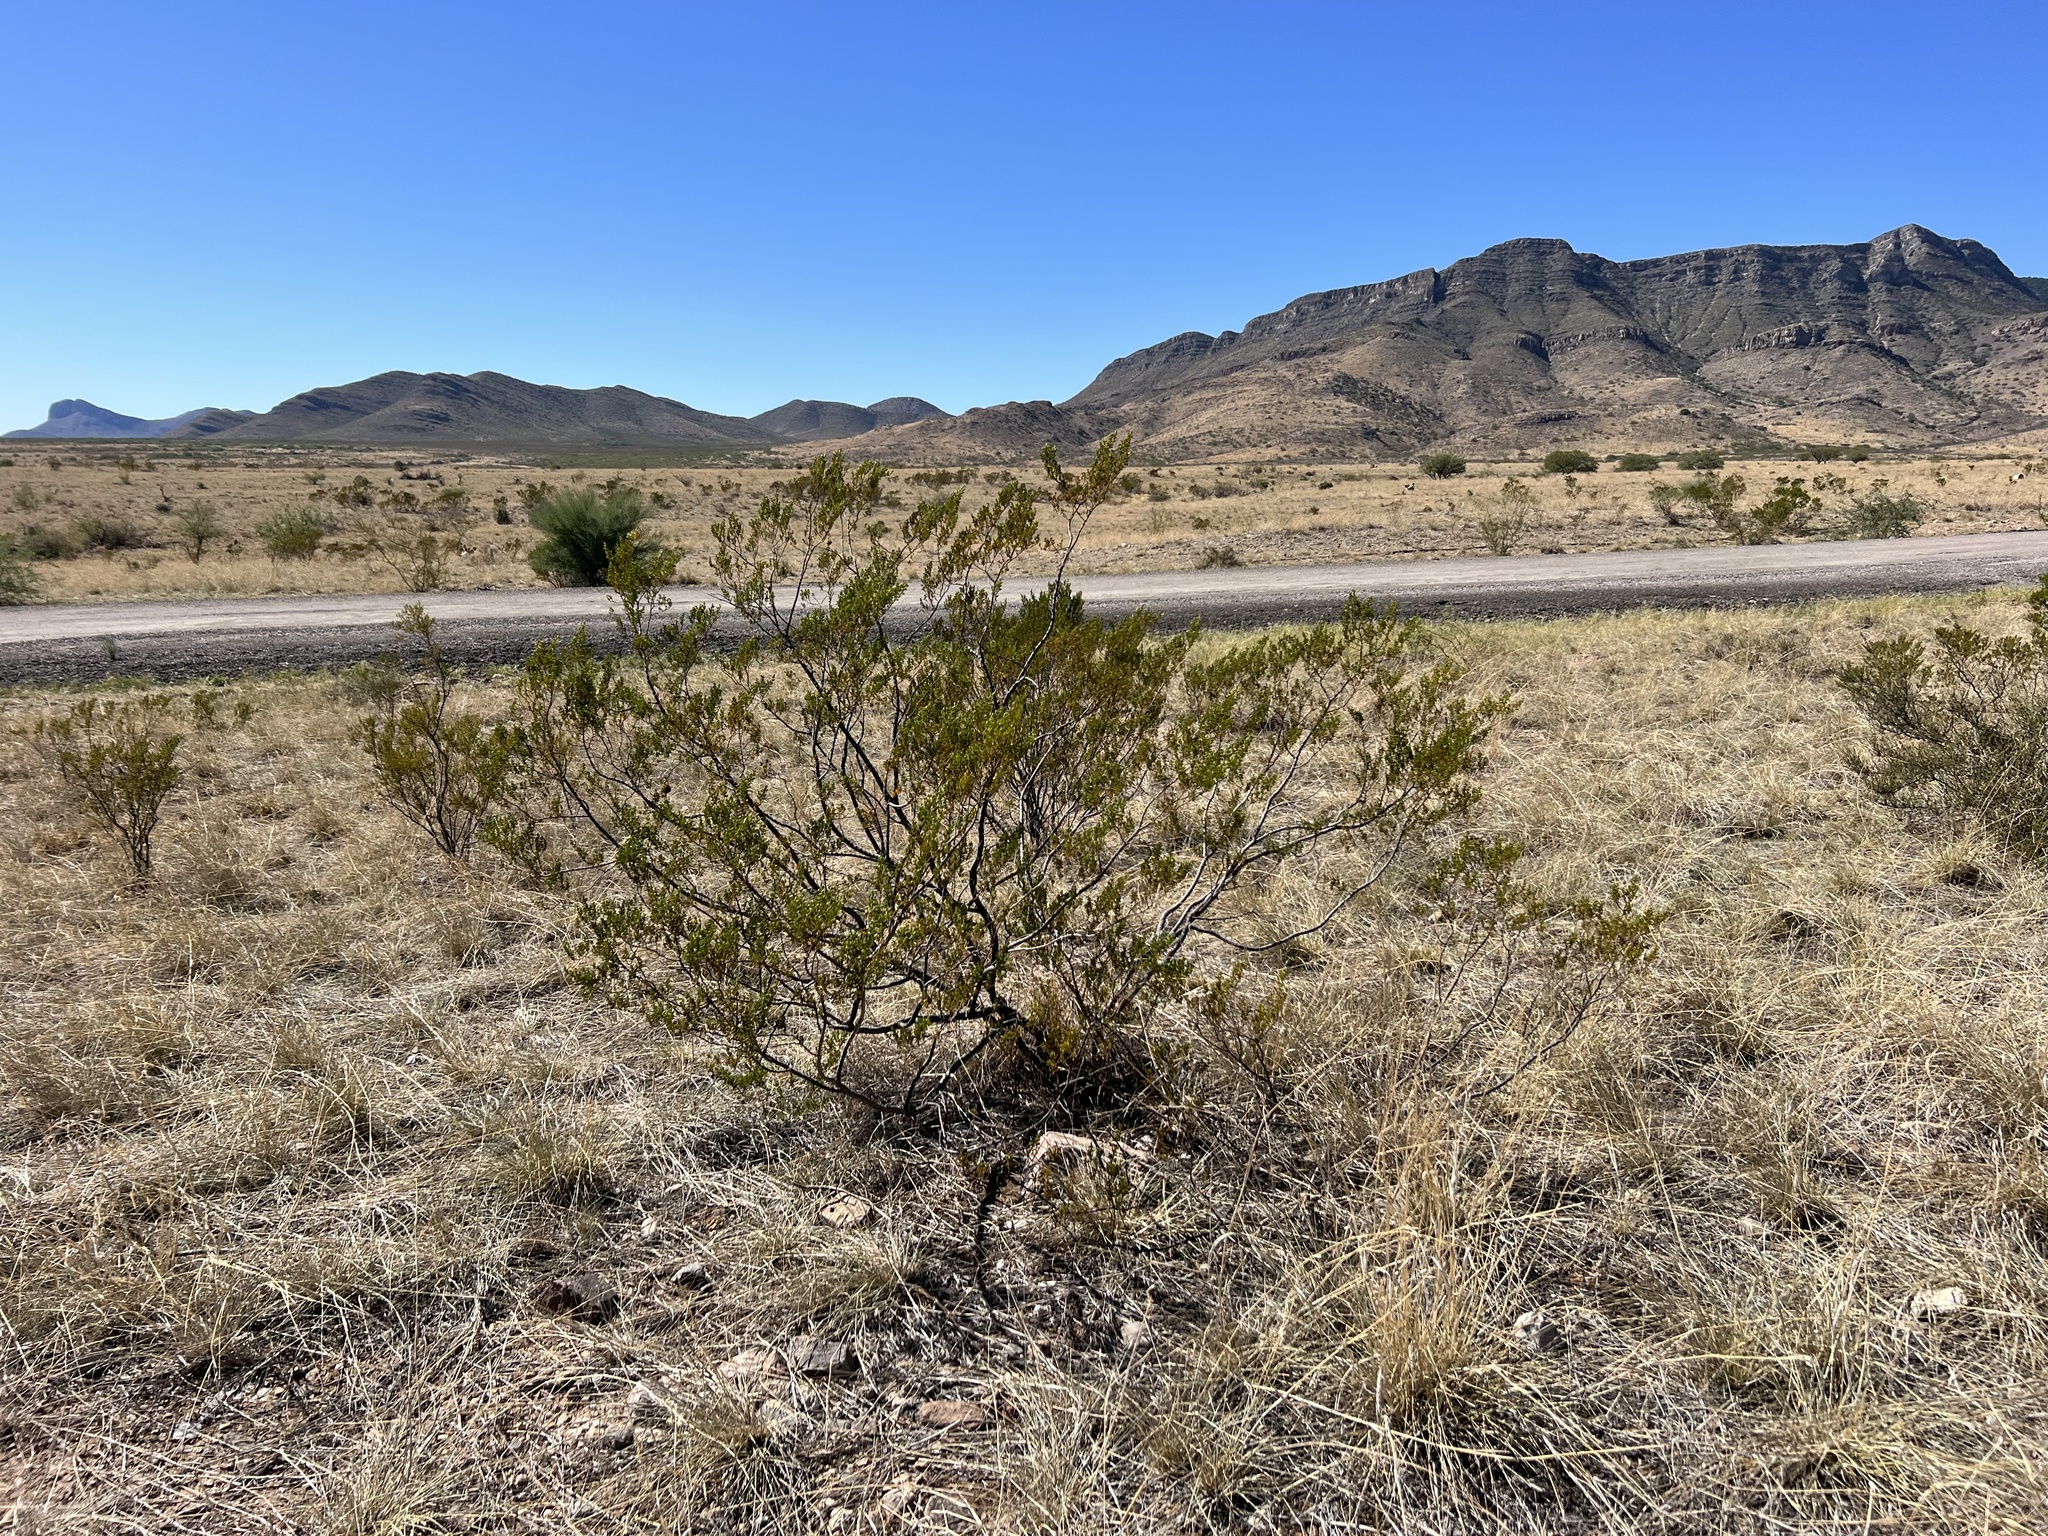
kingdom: Plantae
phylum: Tracheophyta
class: Magnoliopsida
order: Zygophyllales
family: Zygophyllaceae
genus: Larrea
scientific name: Larrea tridentata
